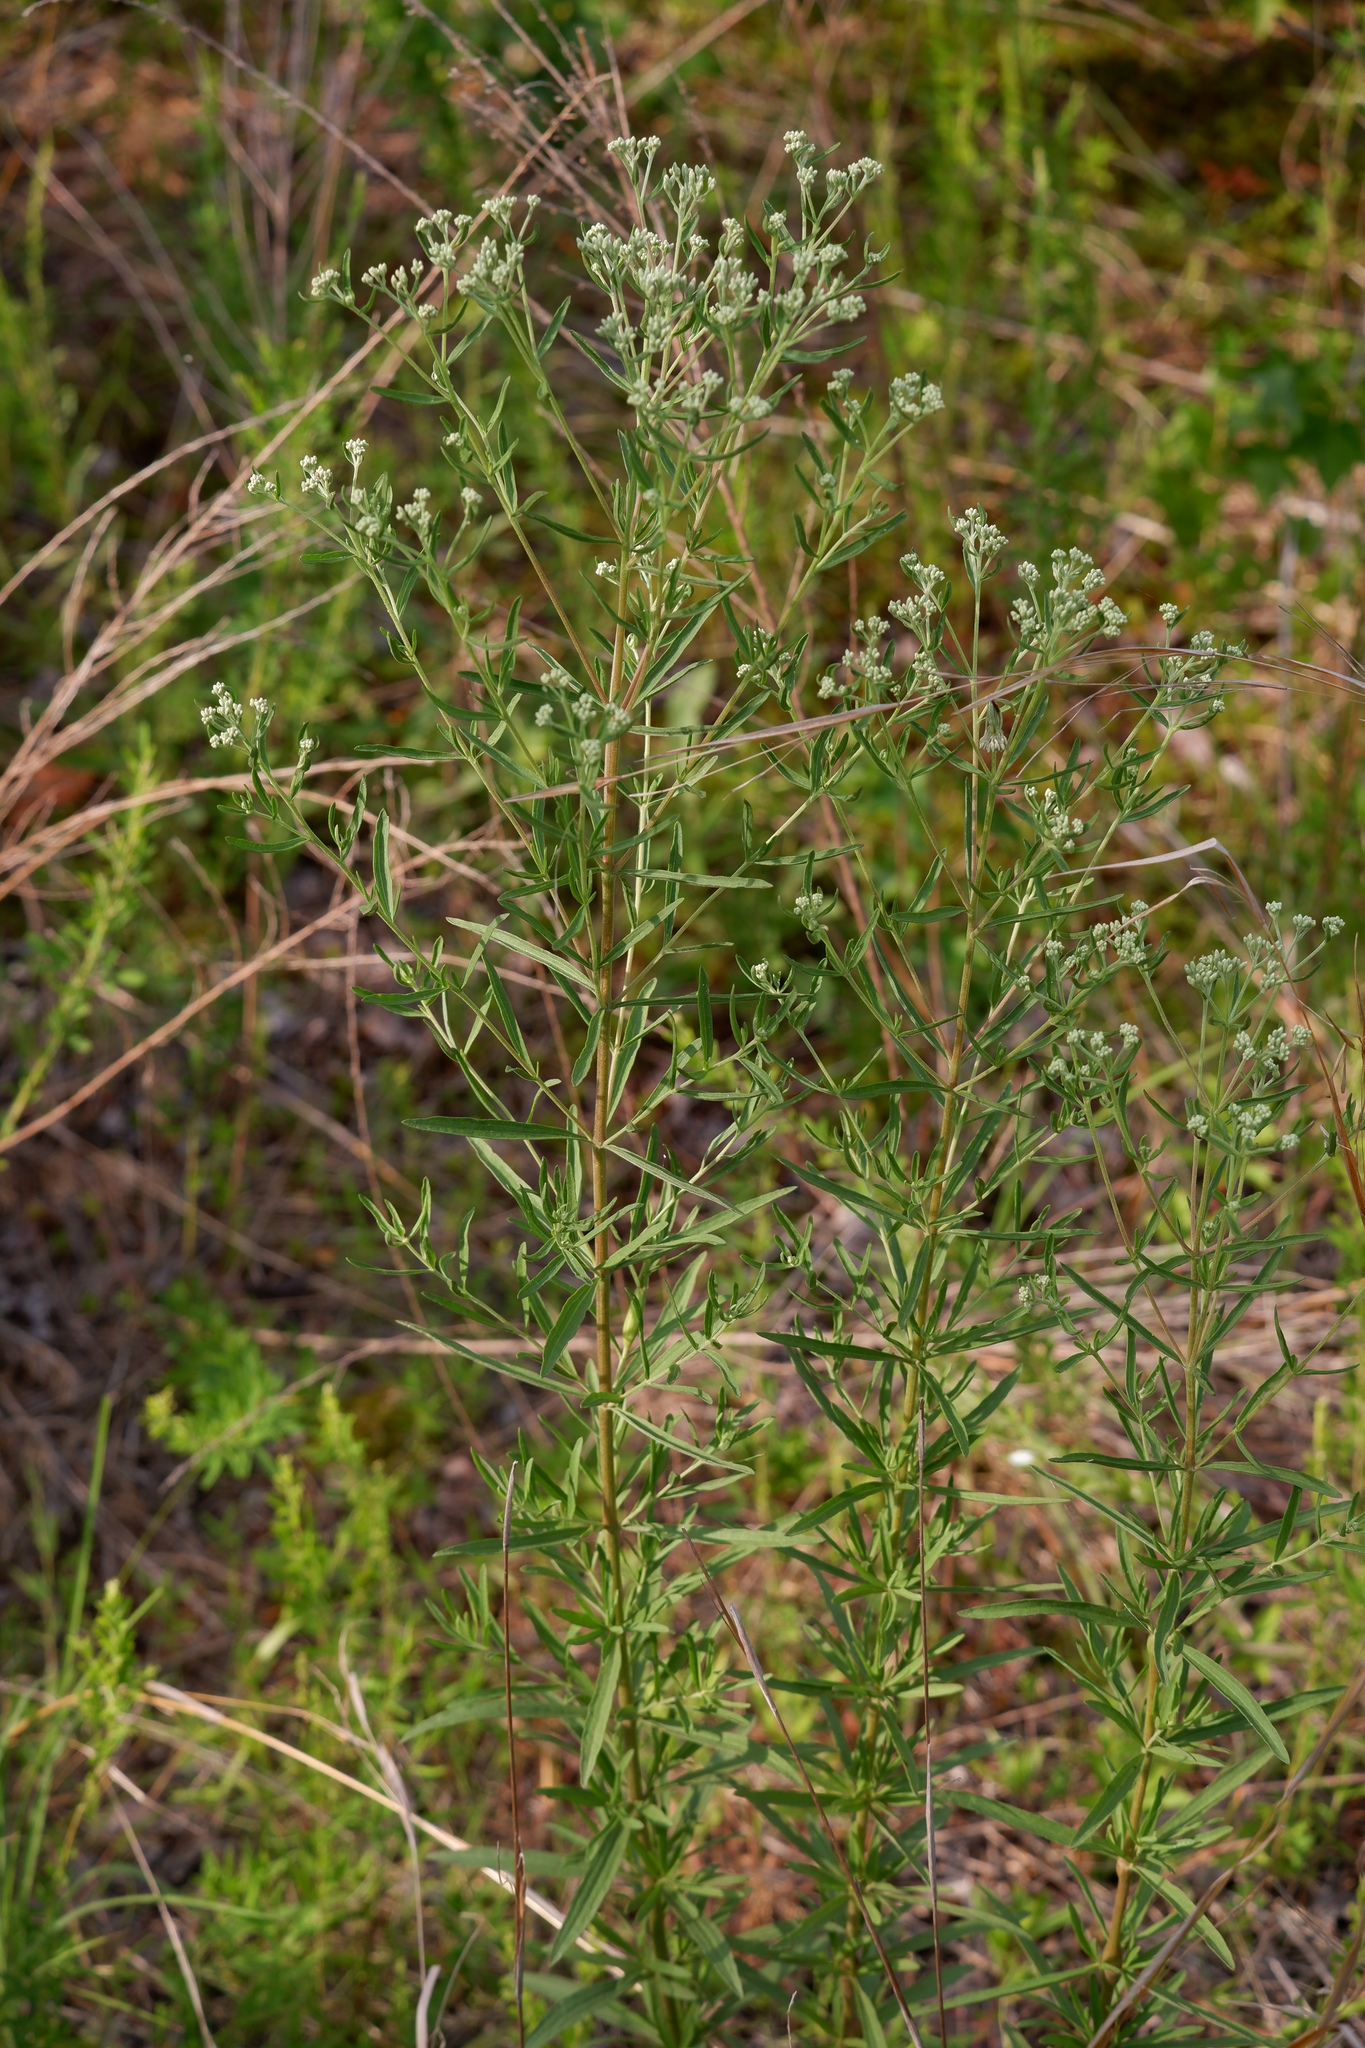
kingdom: Plantae
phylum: Tracheophyta
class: Magnoliopsida
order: Asterales
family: Asteraceae
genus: Eupatorium
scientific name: Eupatorium torreyanum
